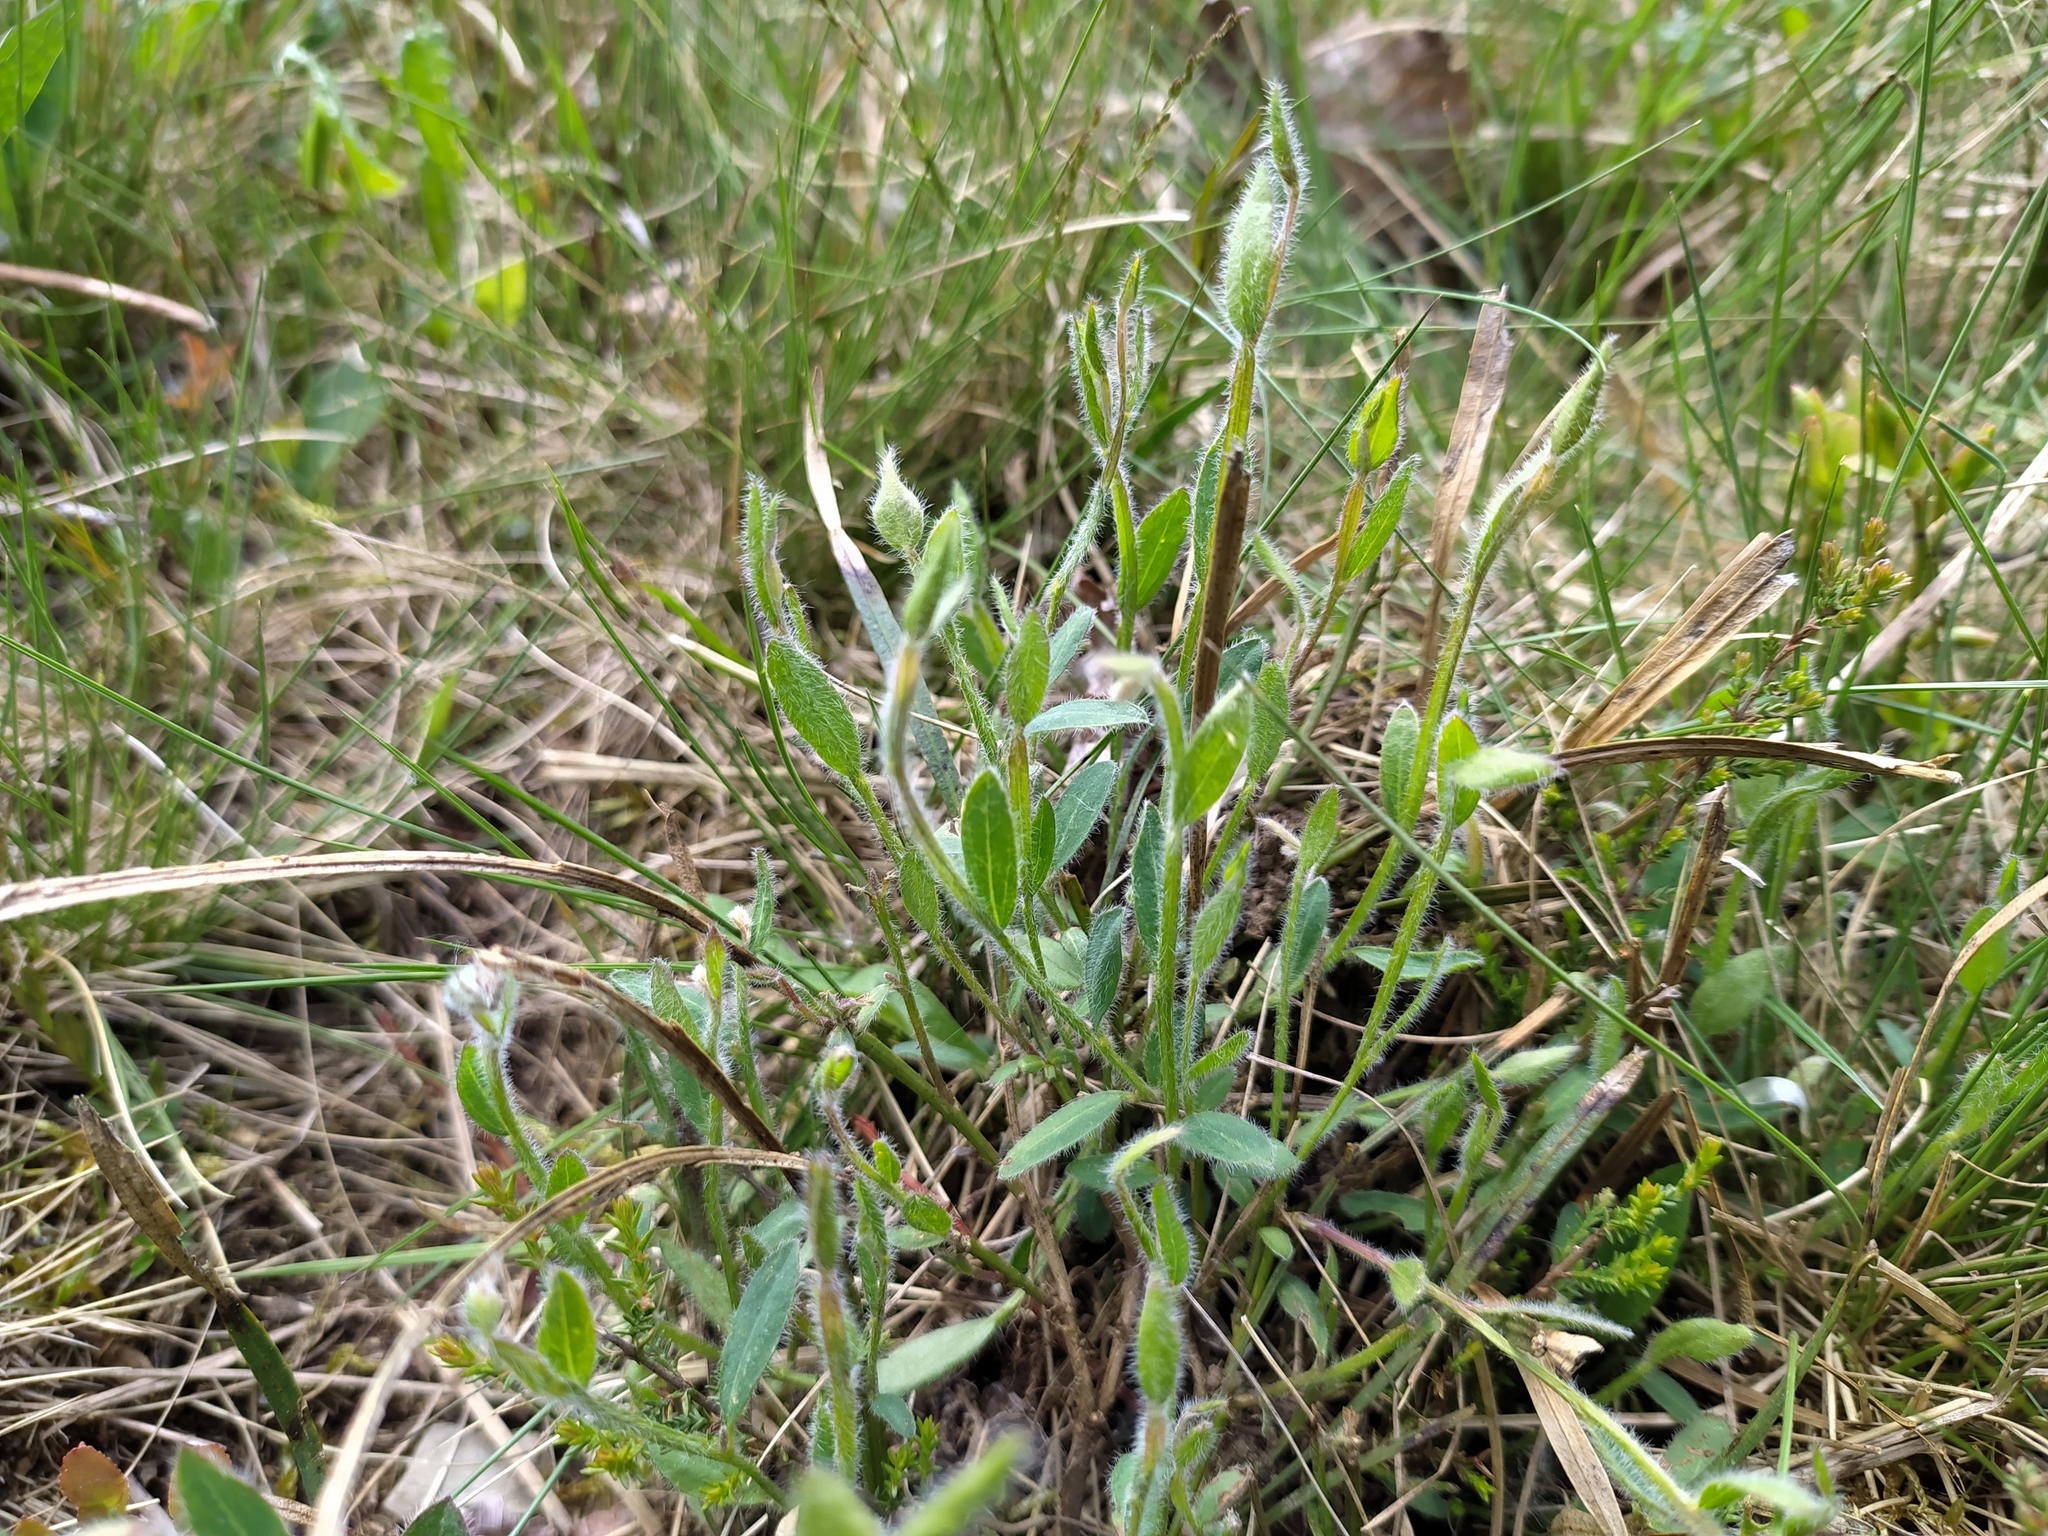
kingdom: Plantae
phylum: Tracheophyta
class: Magnoliopsida
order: Fabales
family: Fabaceae
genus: Genista
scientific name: Genista sagittalis
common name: Winged greenweed
